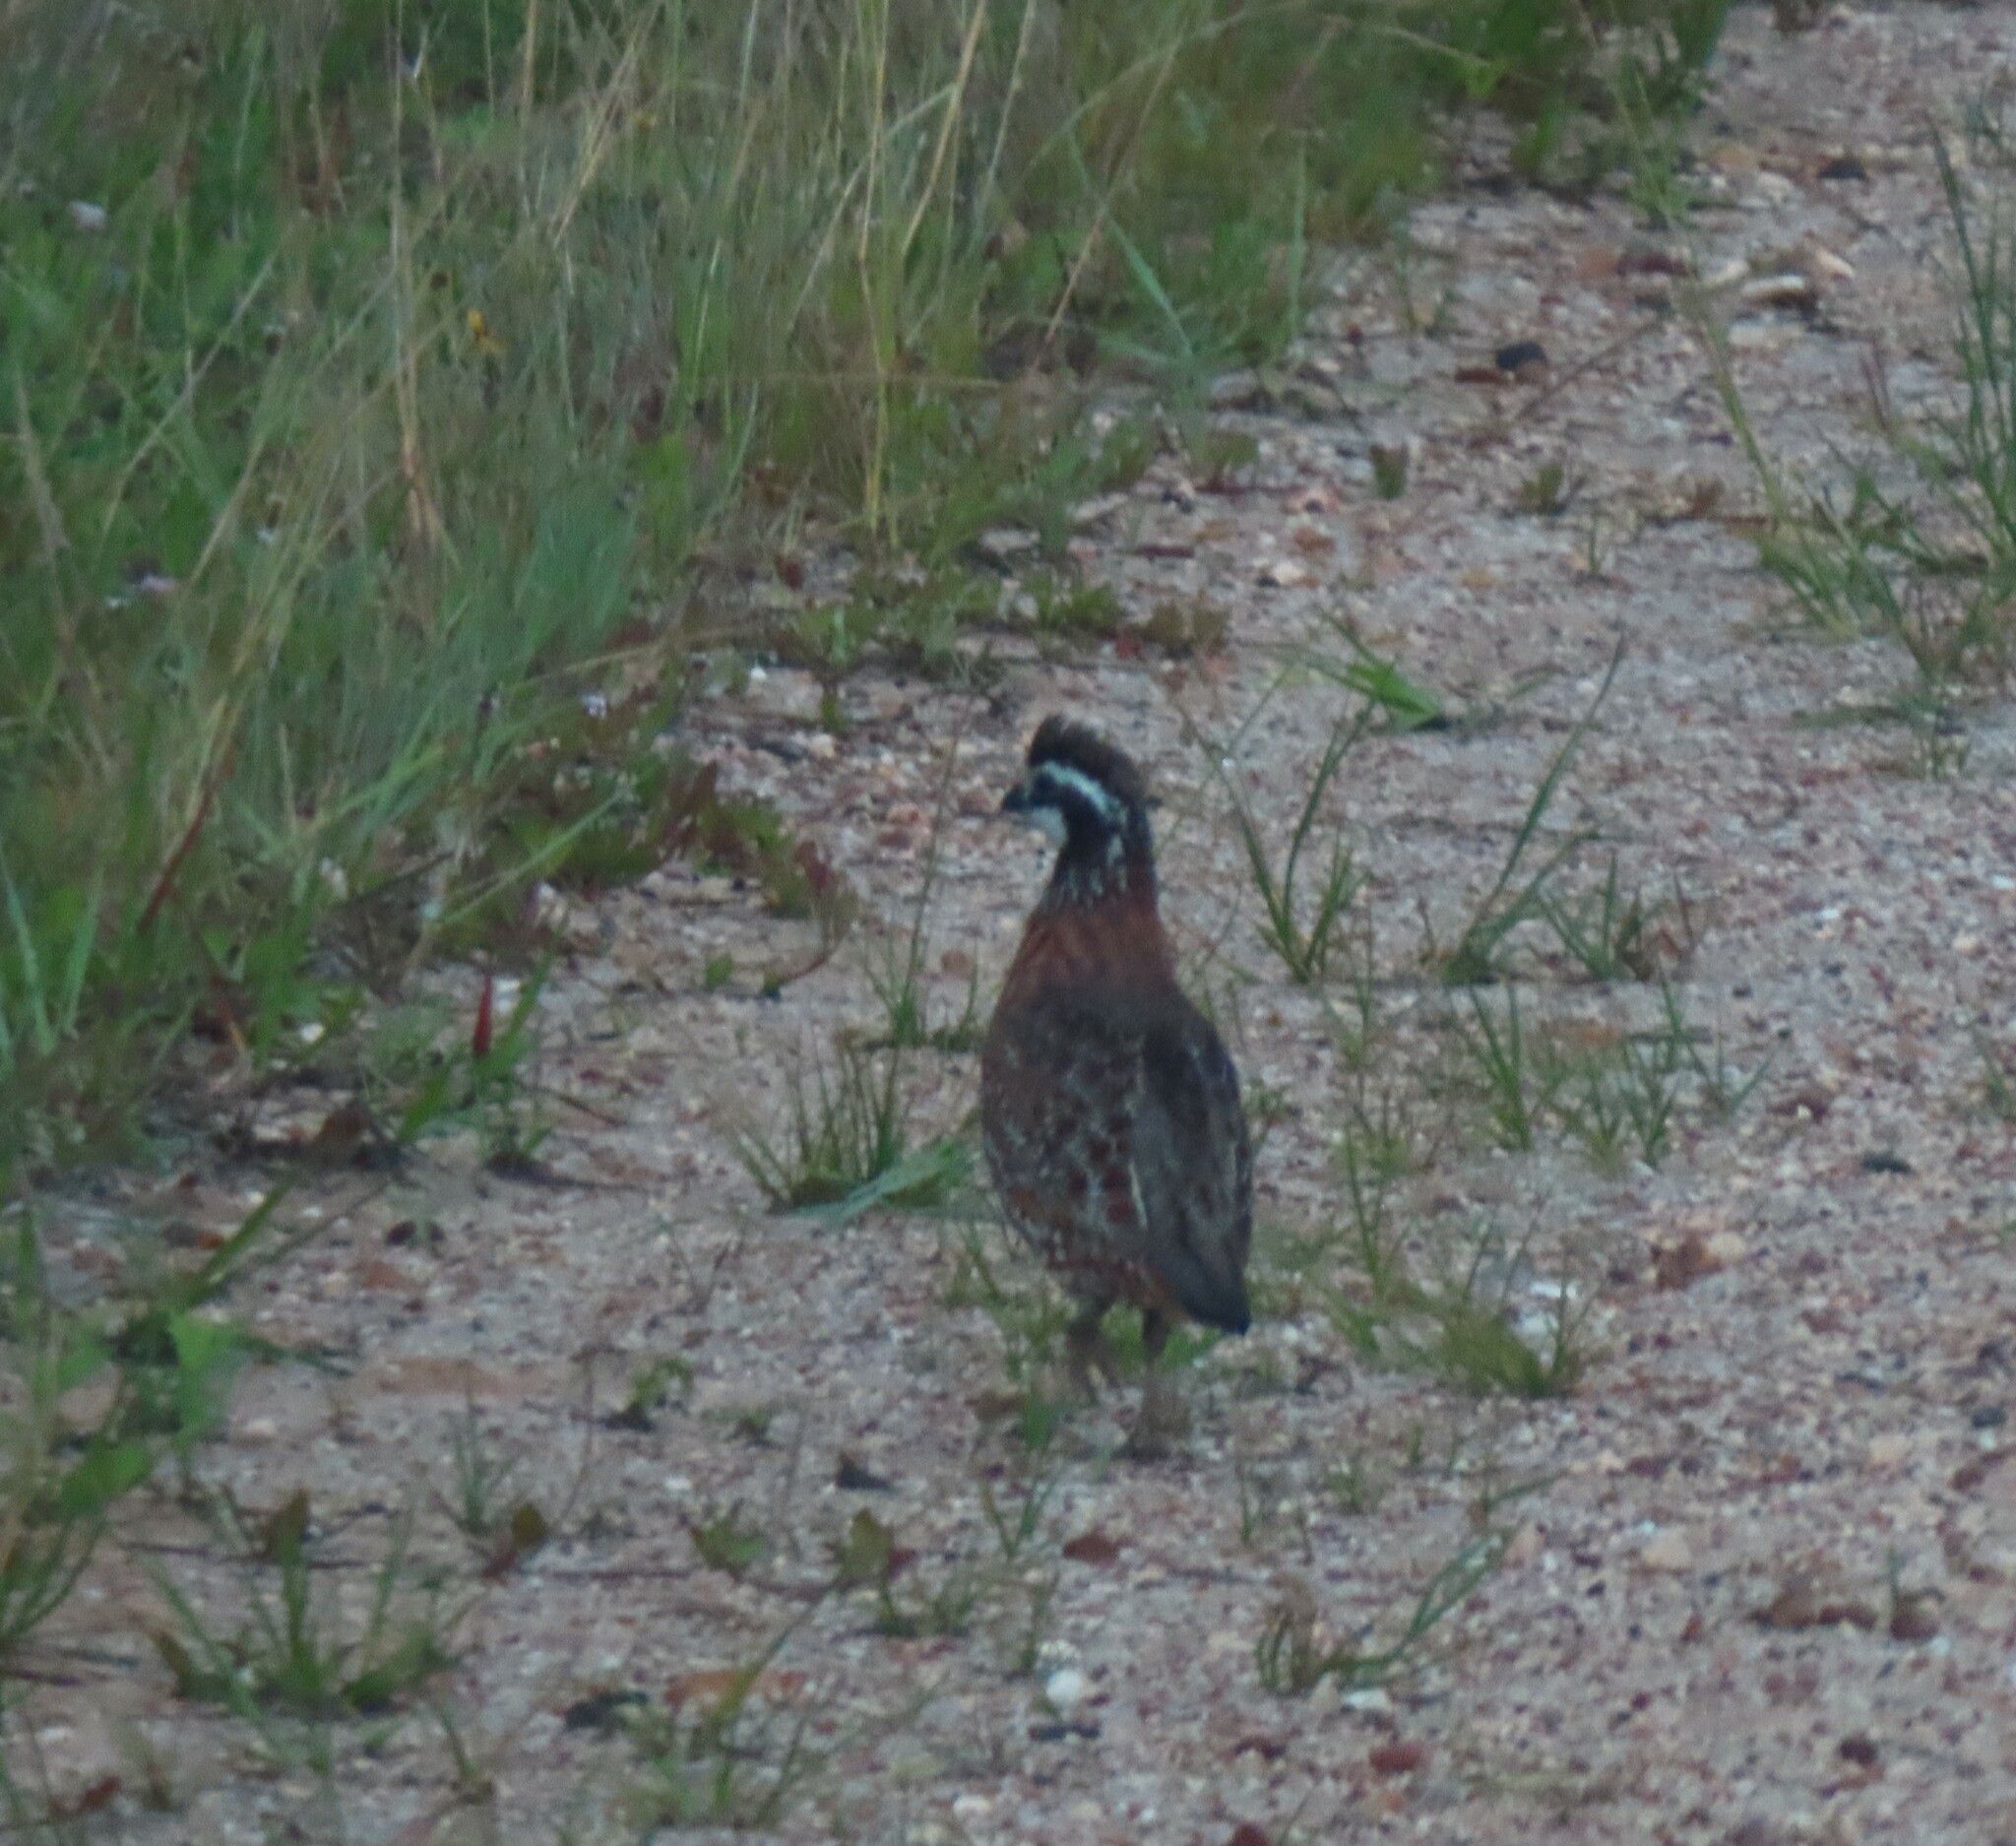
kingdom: Animalia
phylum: Chordata
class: Aves
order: Galliformes
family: Odontophoridae
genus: Colinus
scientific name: Colinus virginianus
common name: Northern bobwhite
